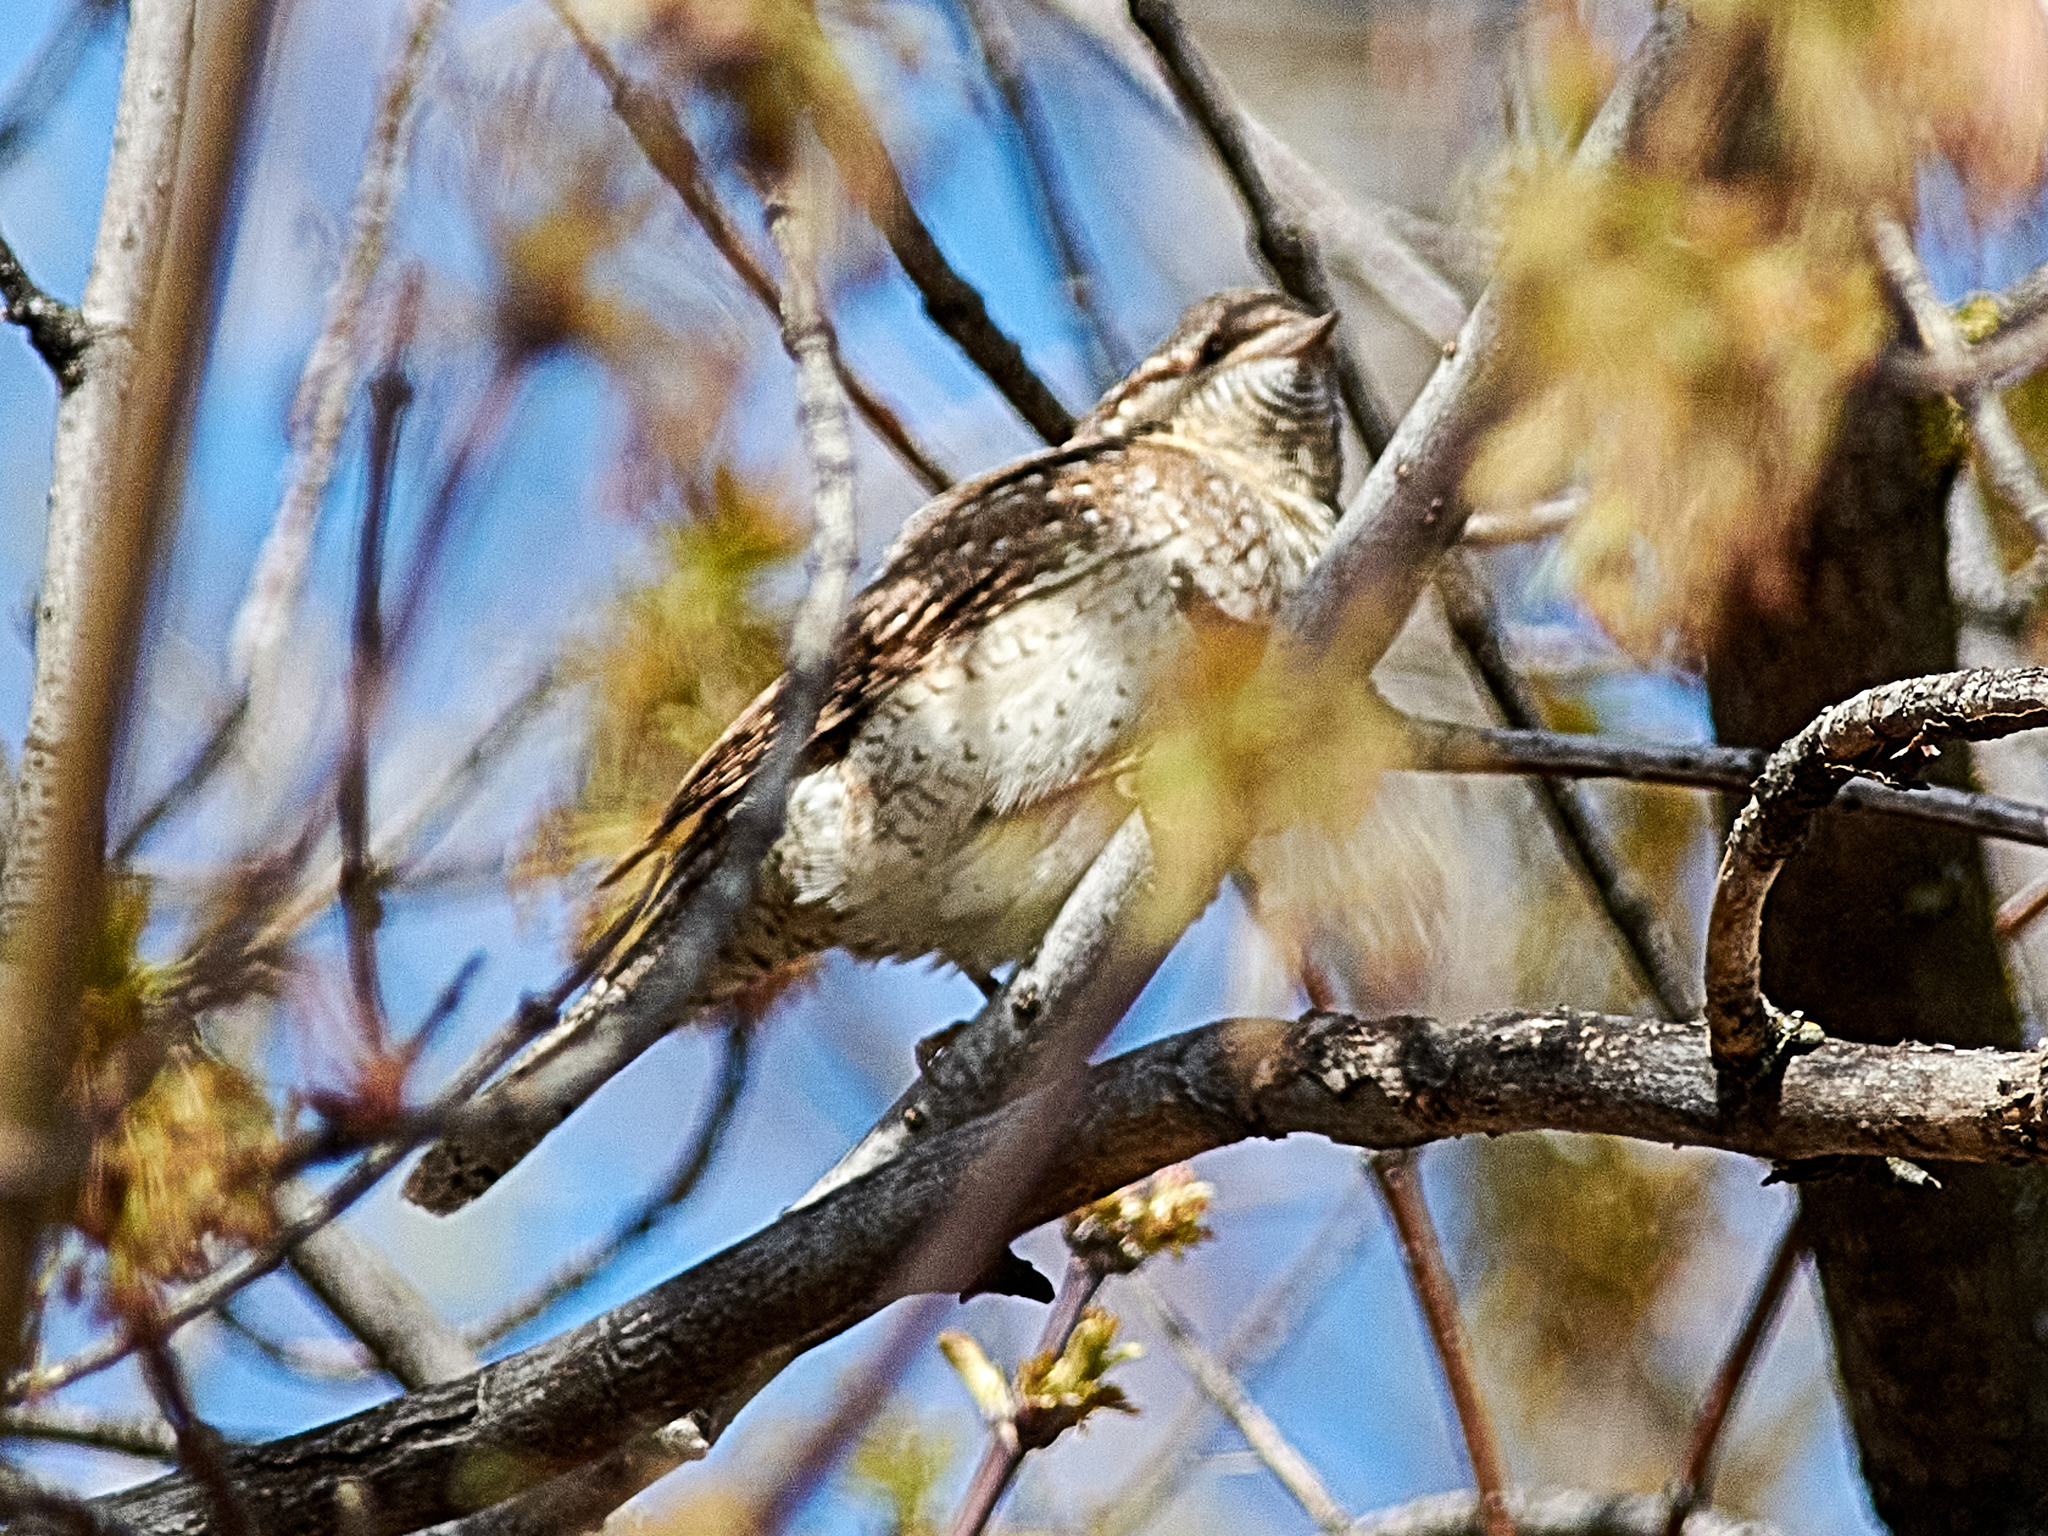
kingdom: Animalia
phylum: Chordata
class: Aves
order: Piciformes
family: Picidae
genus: Jynx
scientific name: Jynx torquilla
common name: Eurasian wryneck
